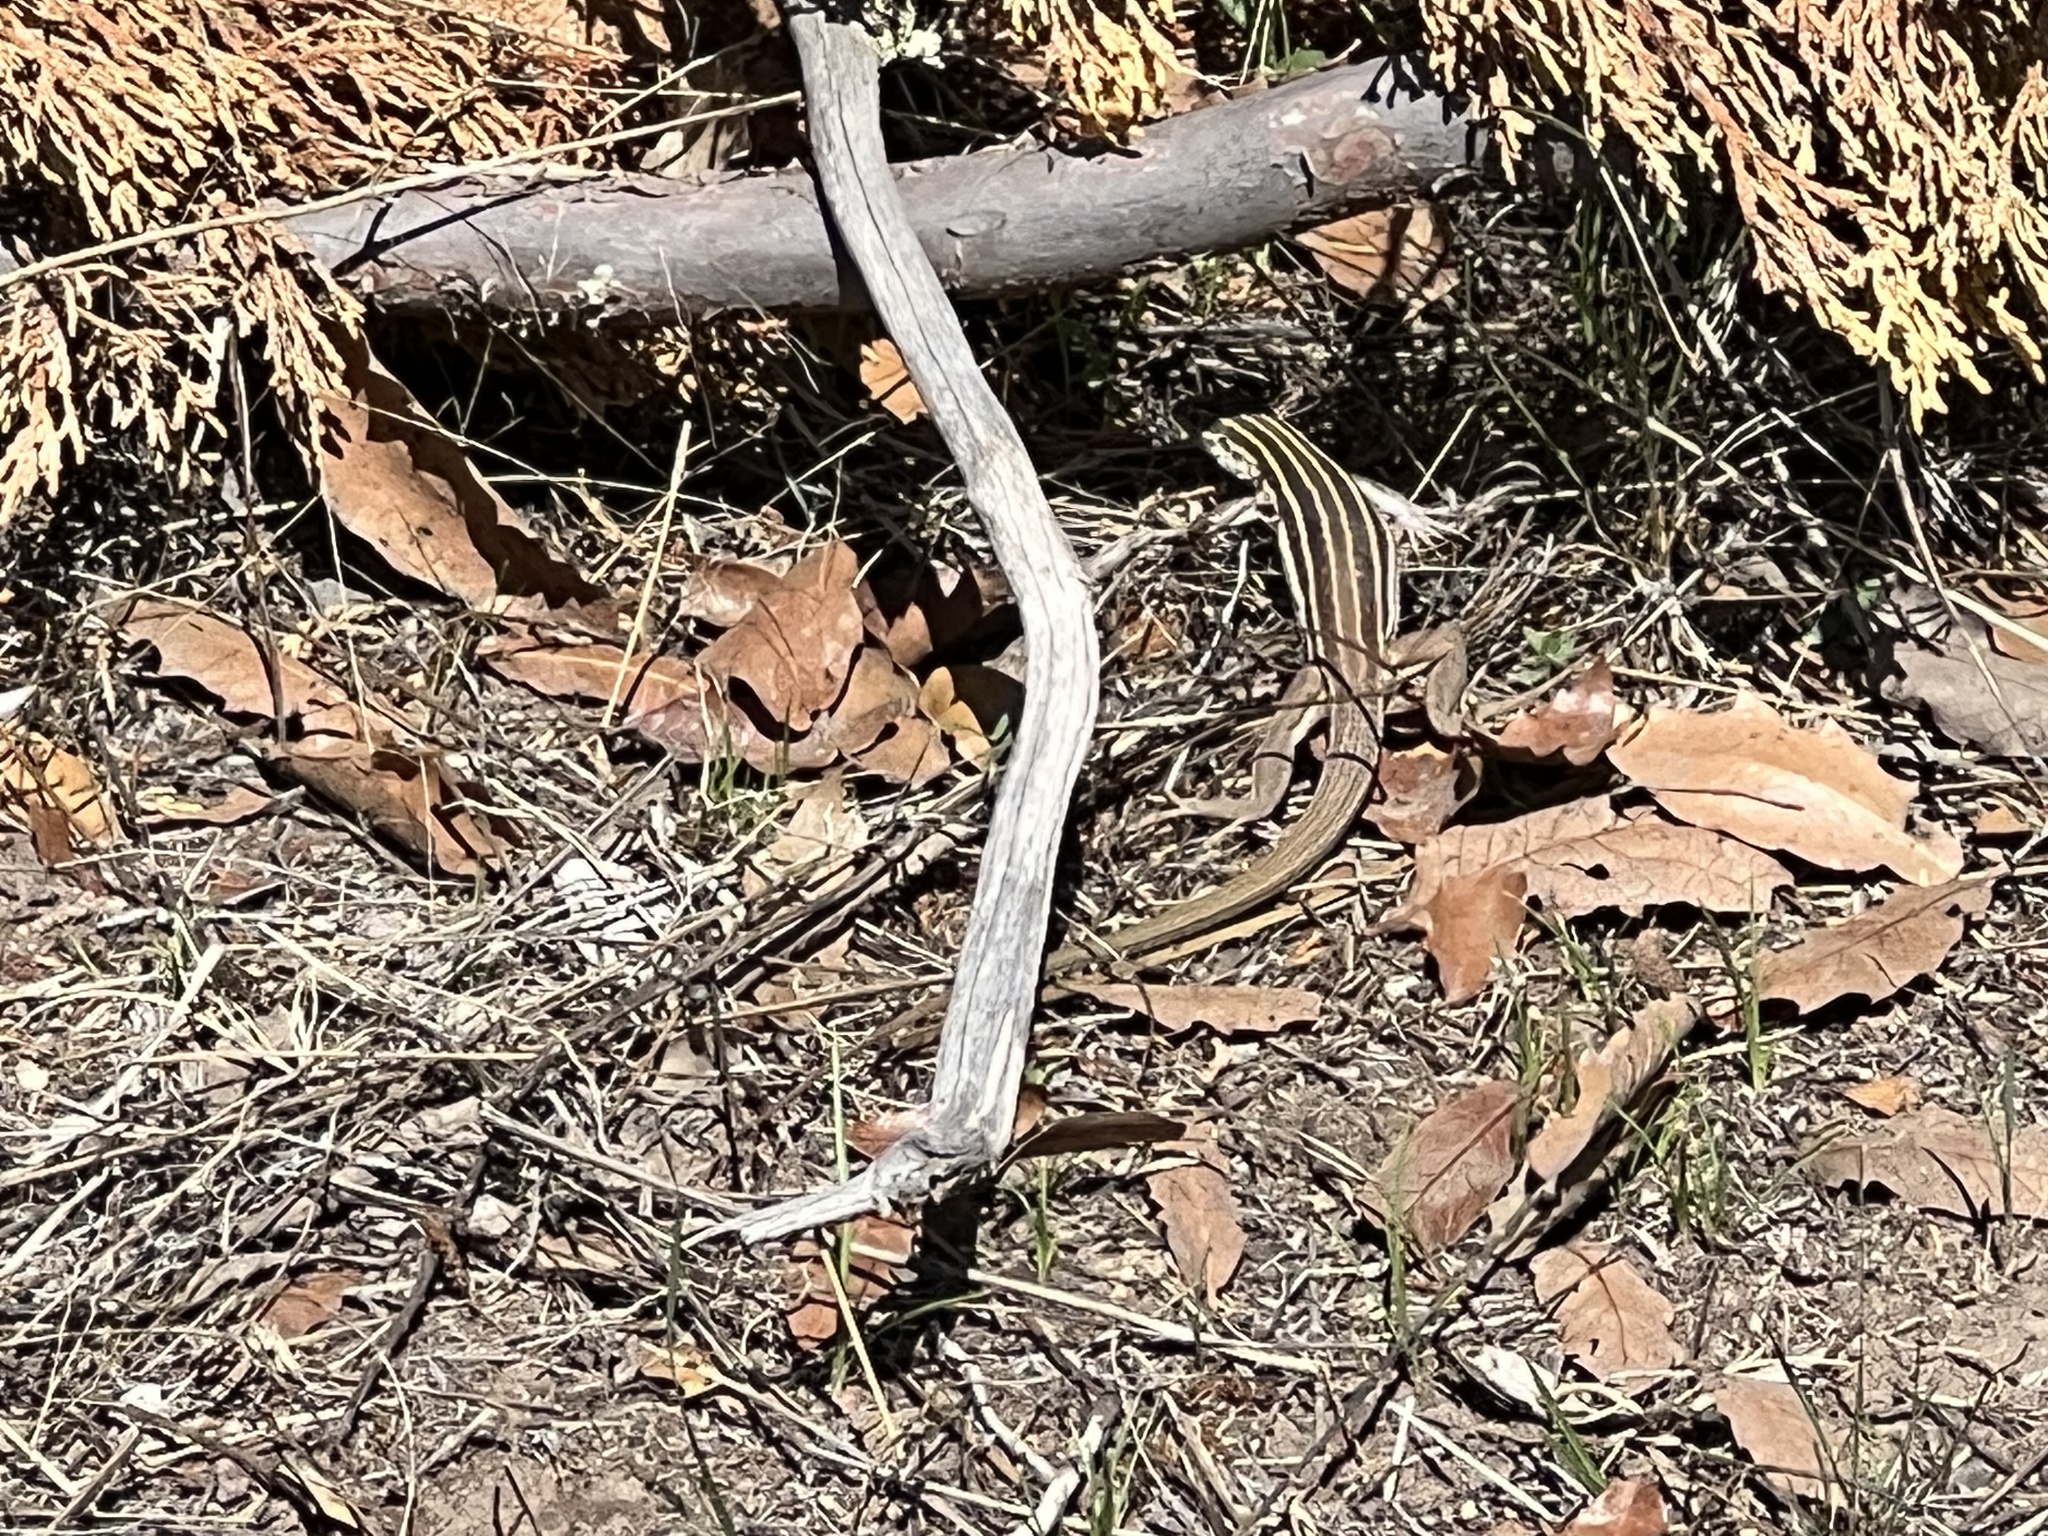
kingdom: Animalia
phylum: Chordata
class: Squamata
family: Teiidae
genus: Aspidoscelis
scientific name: Aspidoscelis sonorae
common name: Sonoran spotted whiptail
